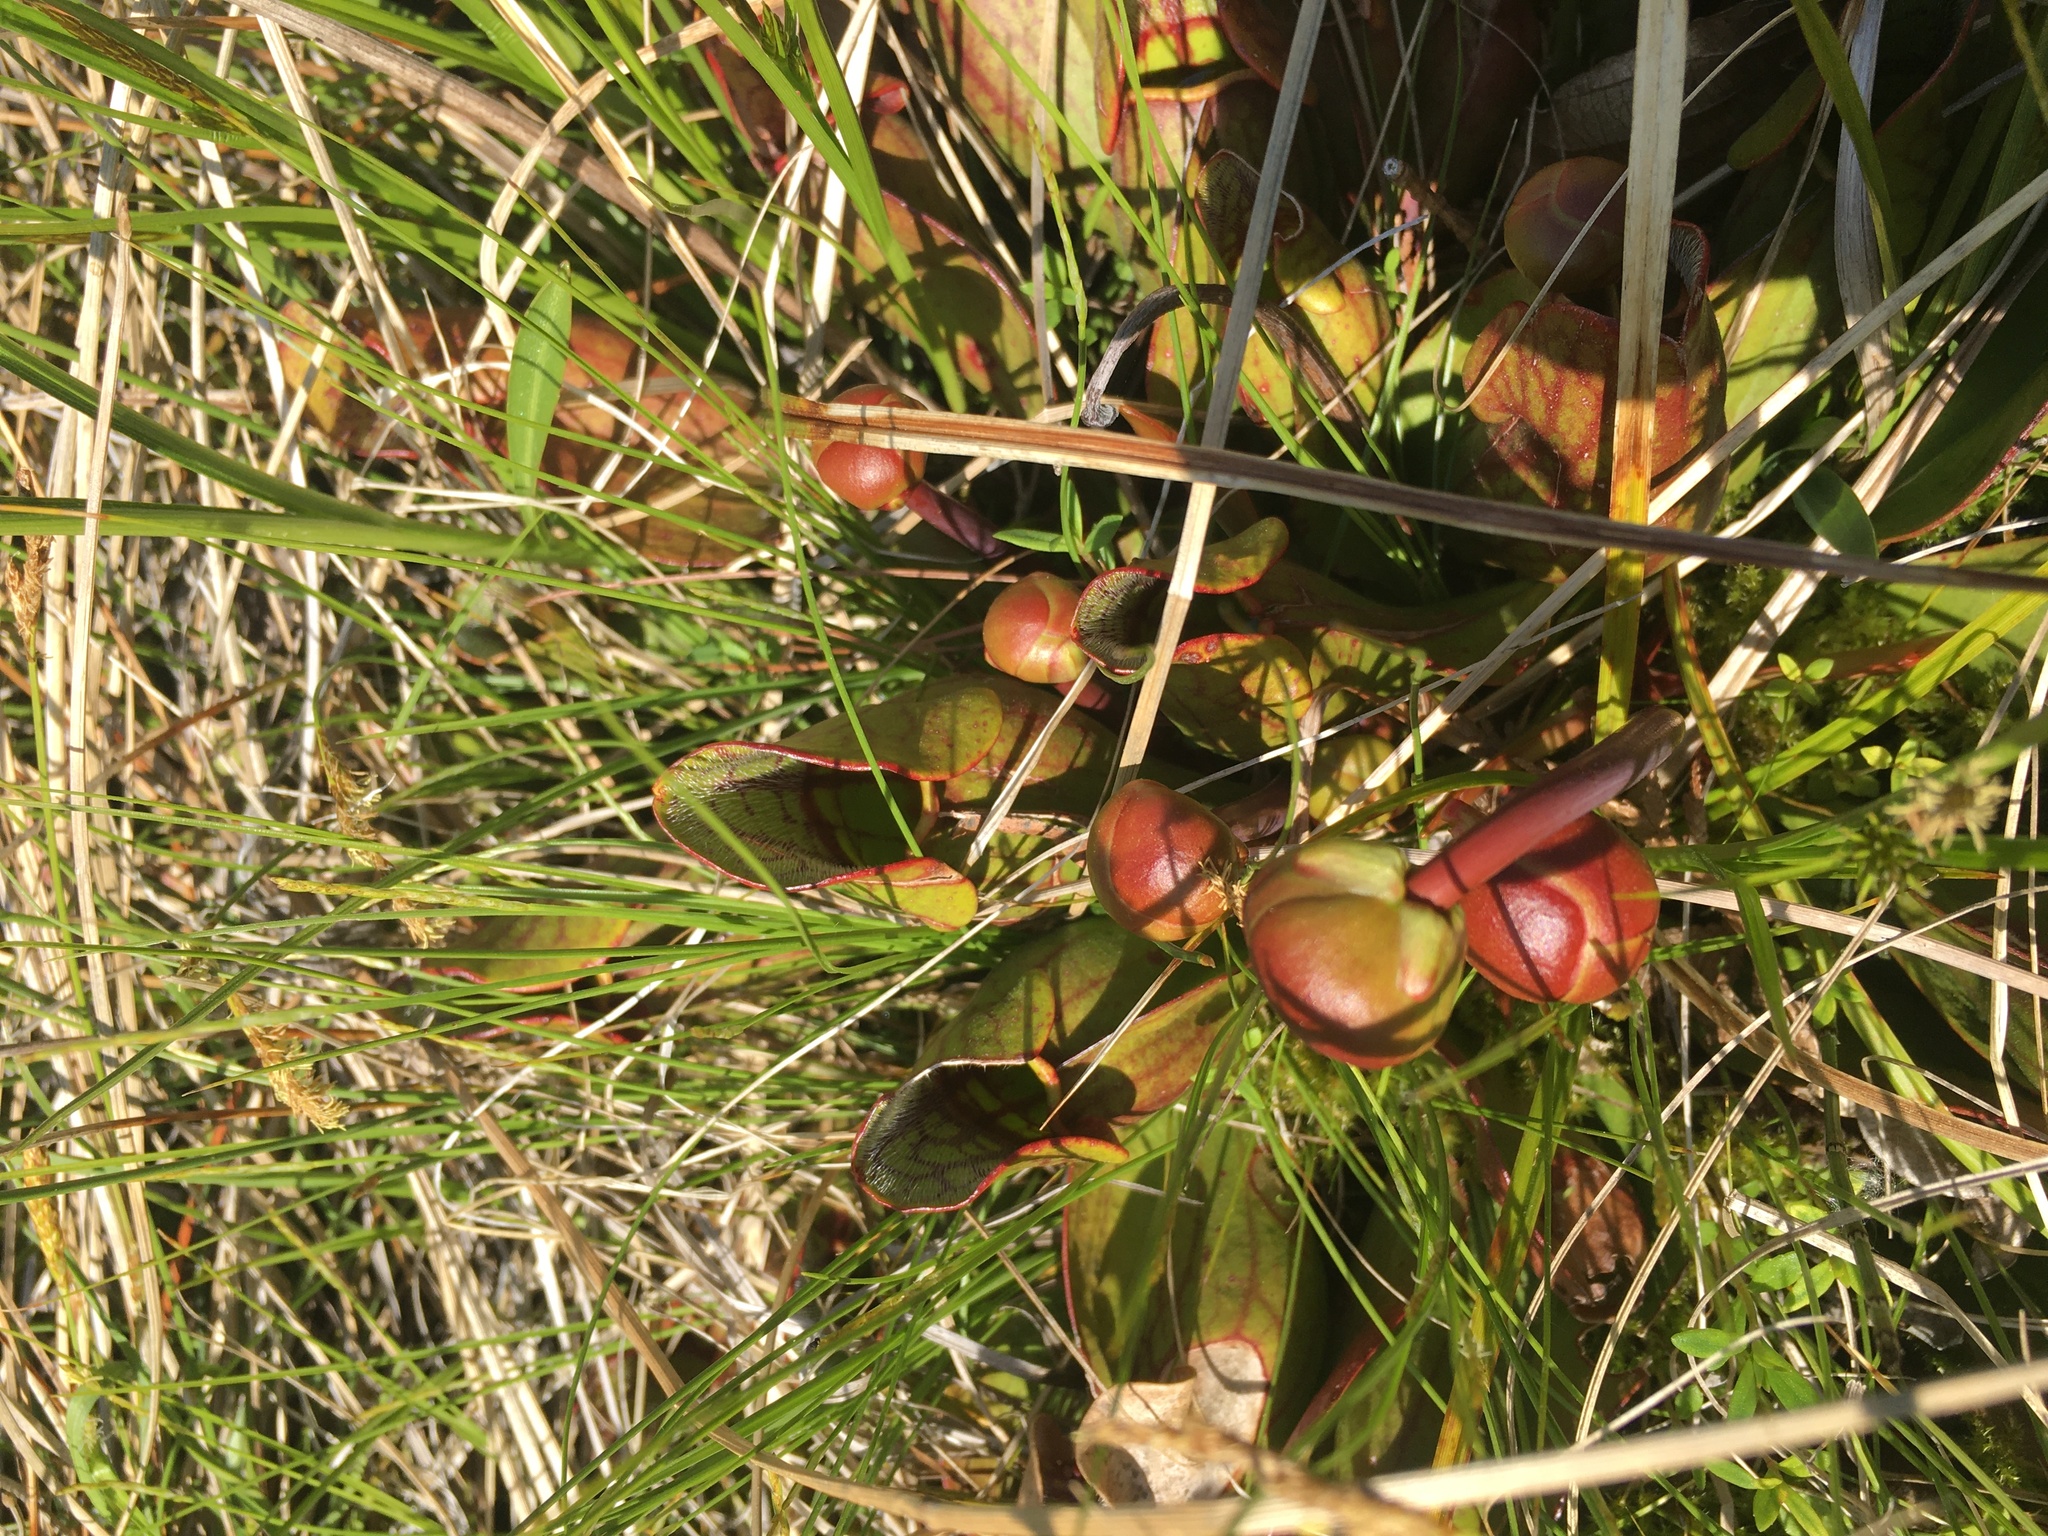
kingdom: Plantae
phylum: Tracheophyta
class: Magnoliopsida
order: Ericales
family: Sarraceniaceae
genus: Sarracenia
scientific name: Sarracenia purpurea
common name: Pitcherplant
